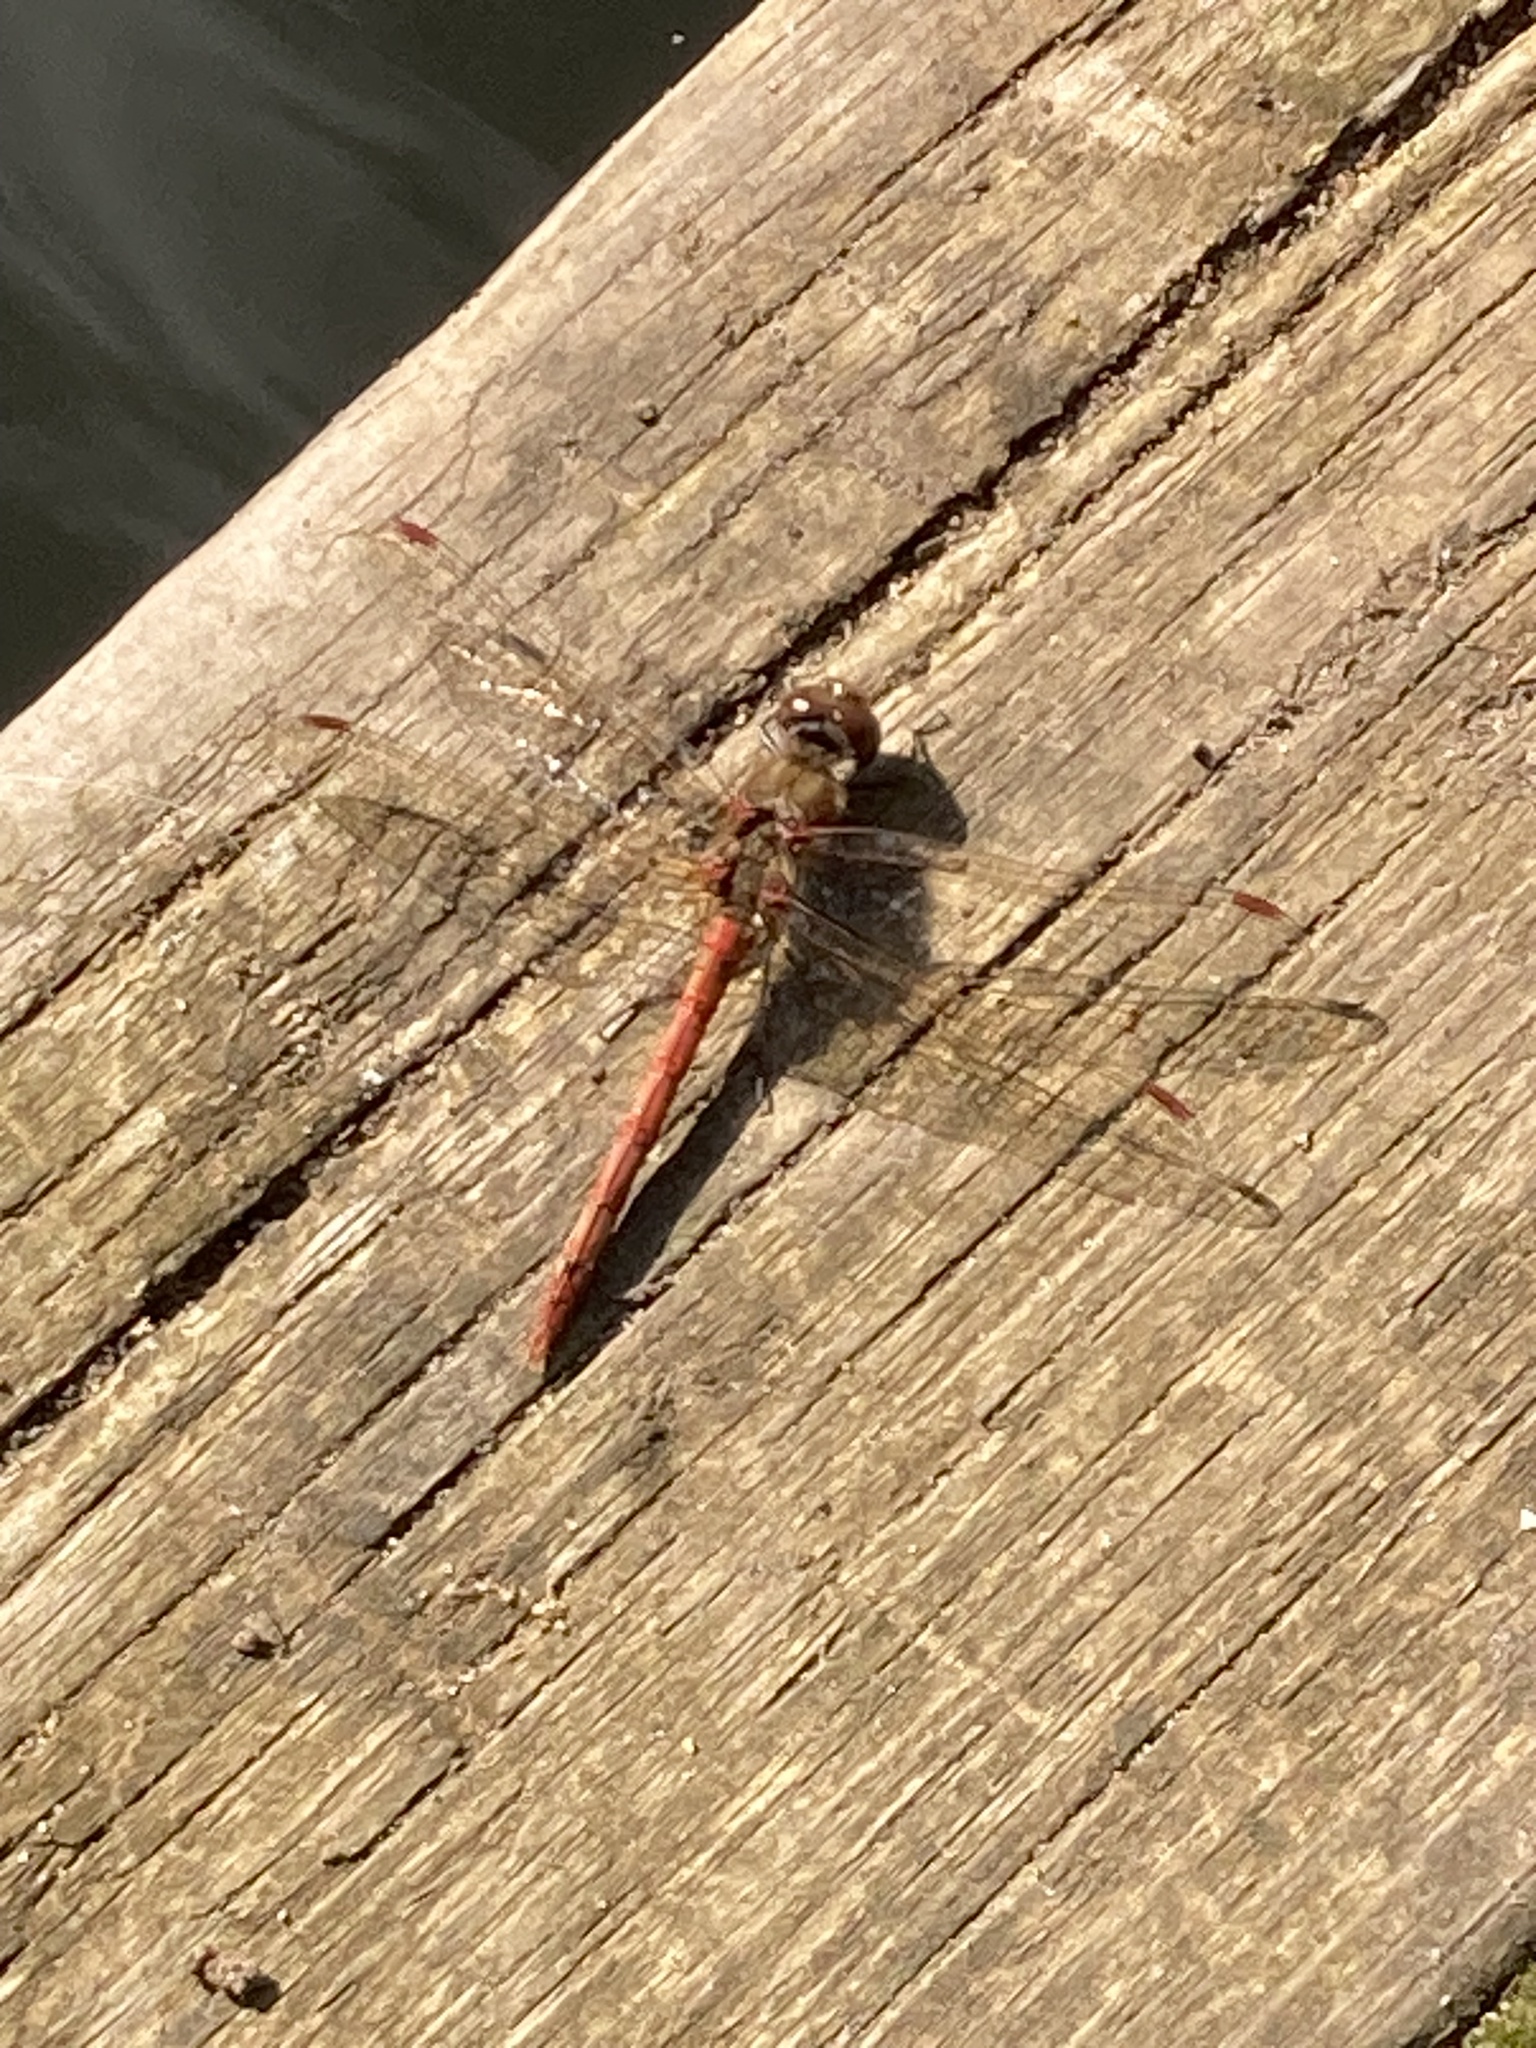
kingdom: Animalia
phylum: Arthropoda
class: Insecta
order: Odonata
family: Libellulidae
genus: Sympetrum
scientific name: Sympetrum striolatum
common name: Common darter
